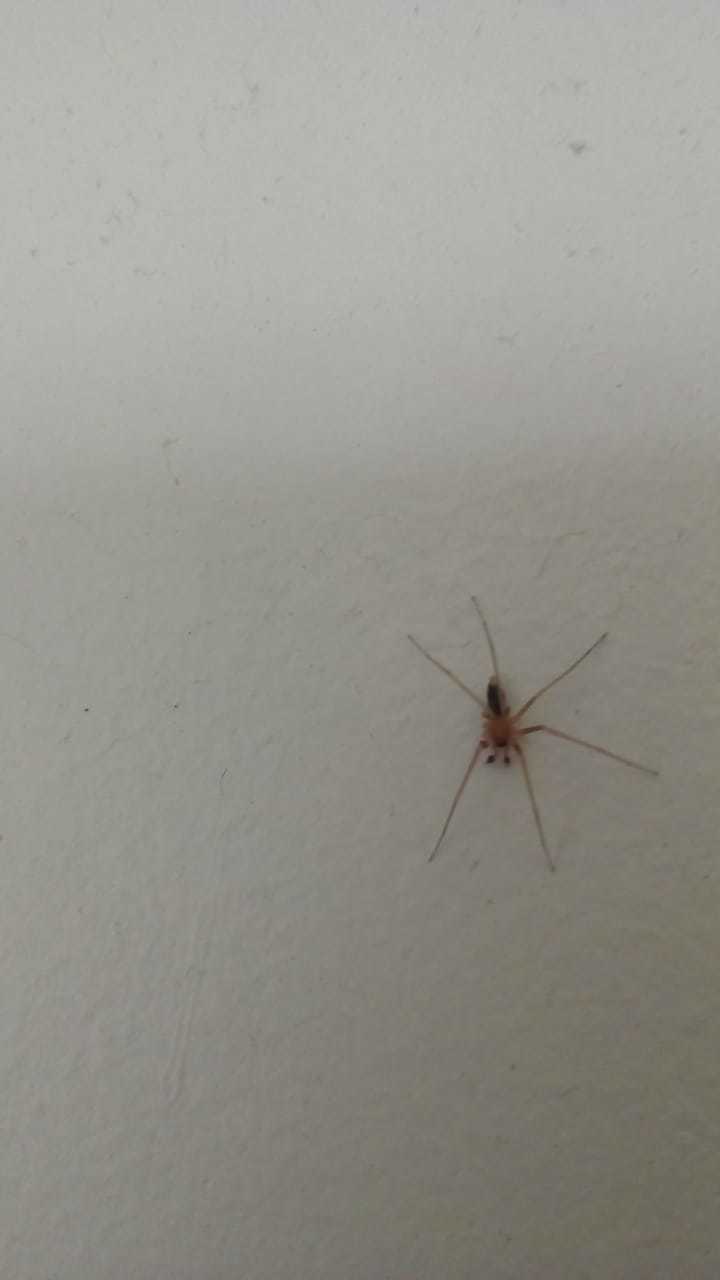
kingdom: Animalia
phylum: Arthropoda
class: Arachnida
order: Araneae
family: Cithaeronidae
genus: Cithaeron
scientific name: Cithaeron praedonius
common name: Synanthropic spider
